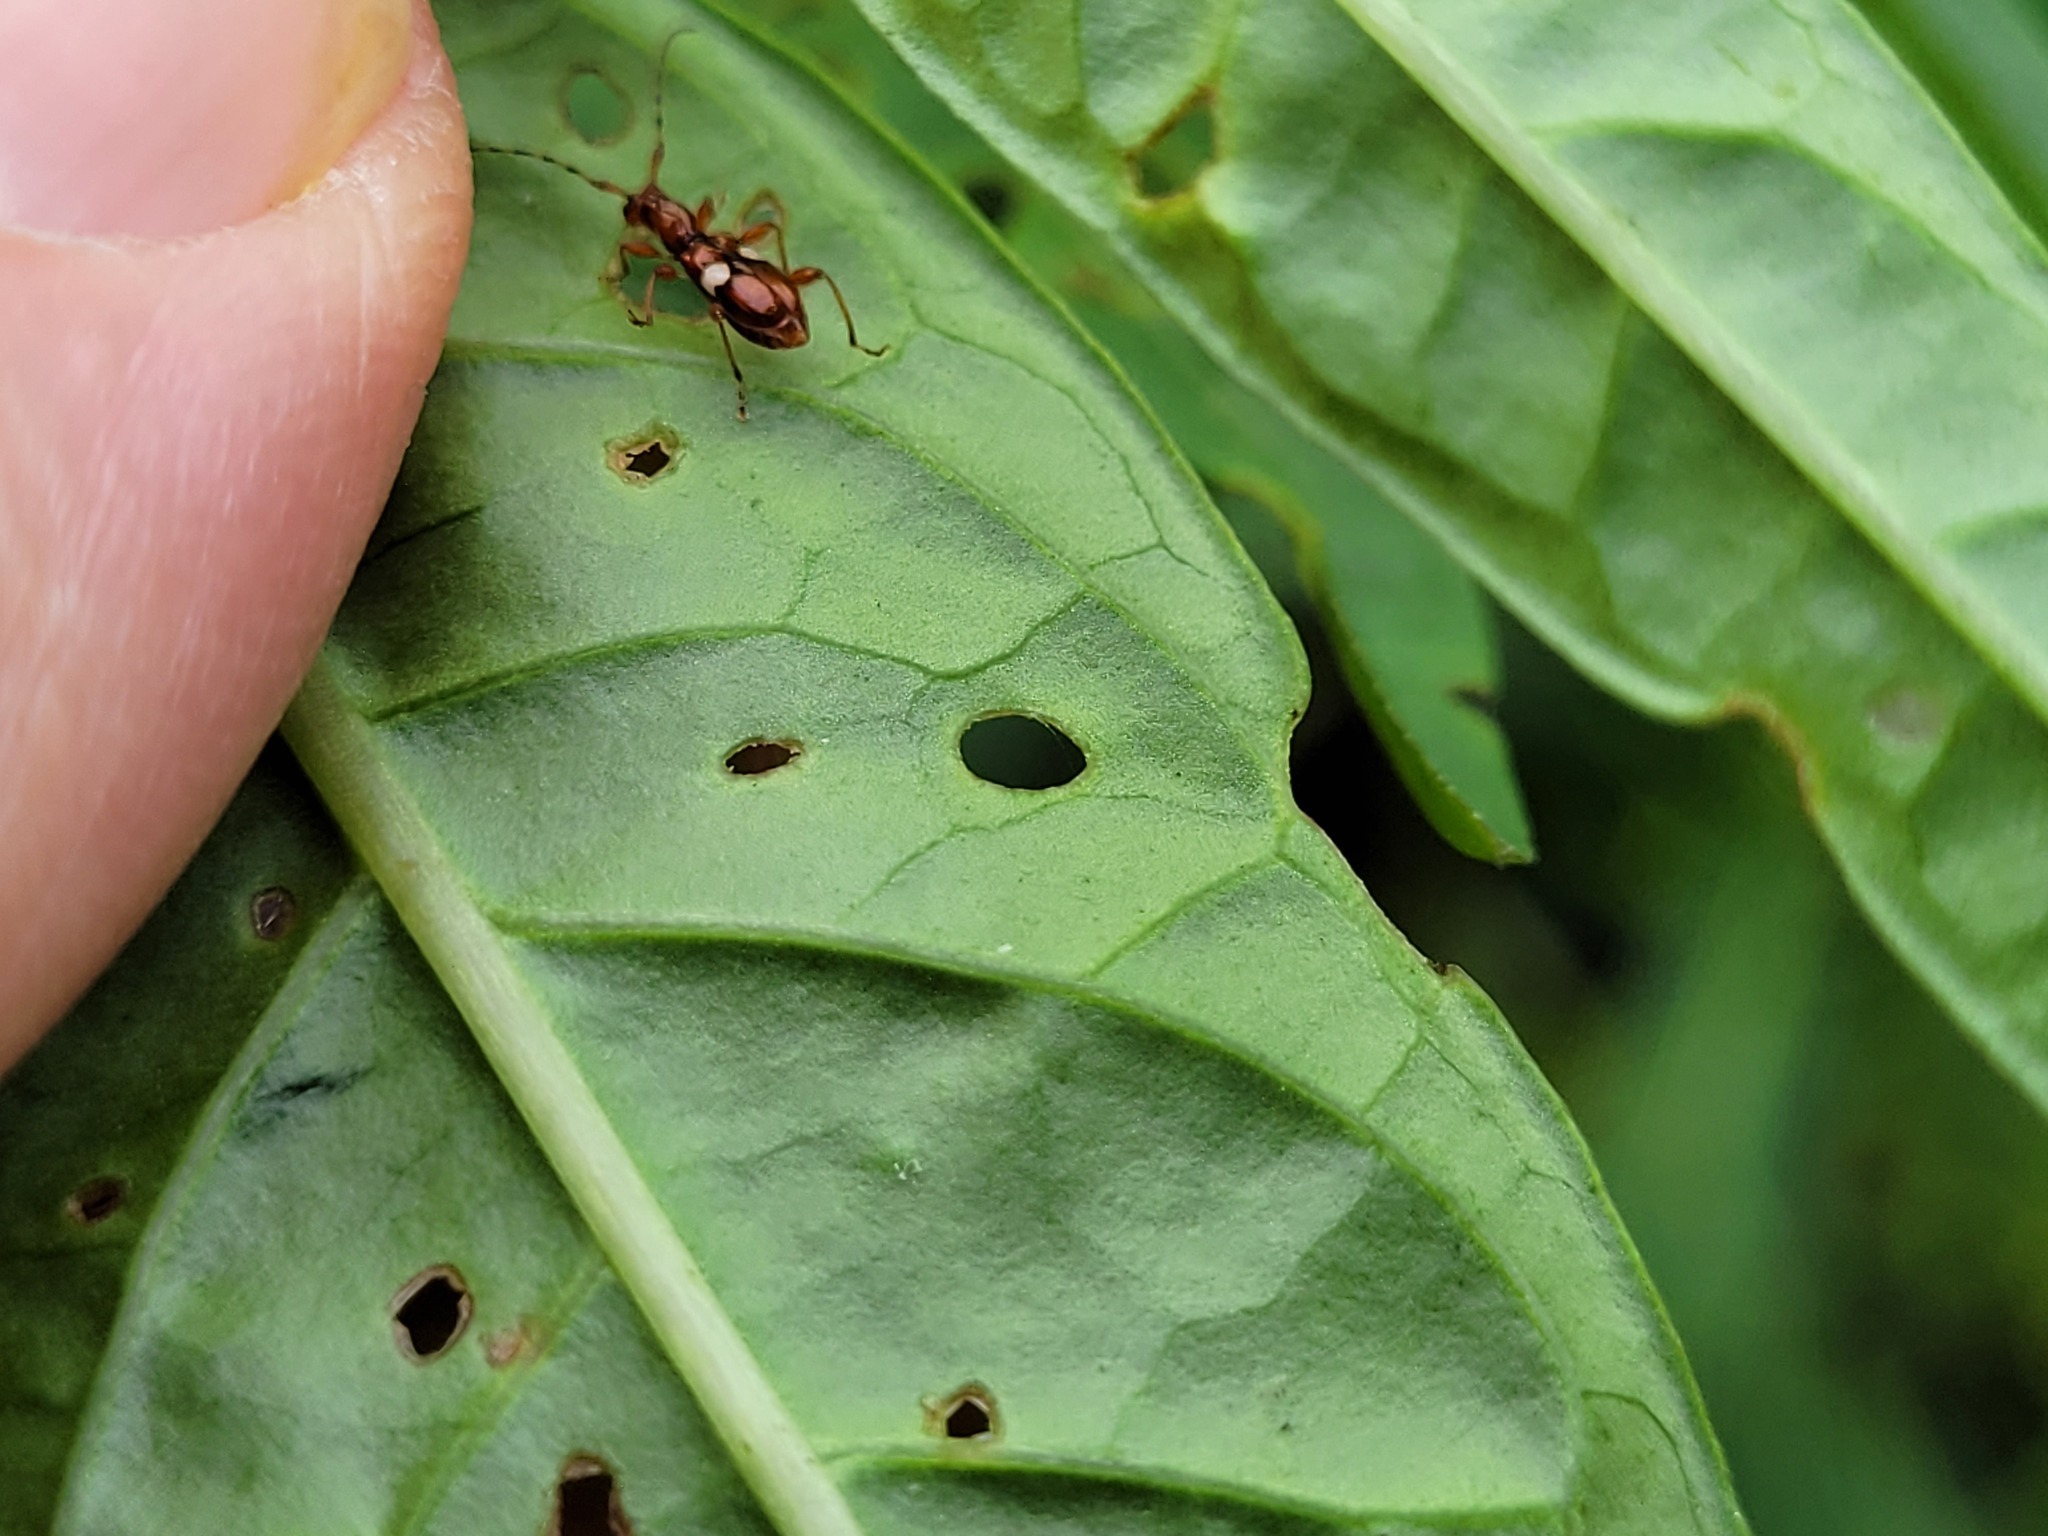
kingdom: Animalia
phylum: Arthropoda
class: Insecta
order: Coleoptera
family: Cerambycidae
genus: Zorion
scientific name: Zorion australe
